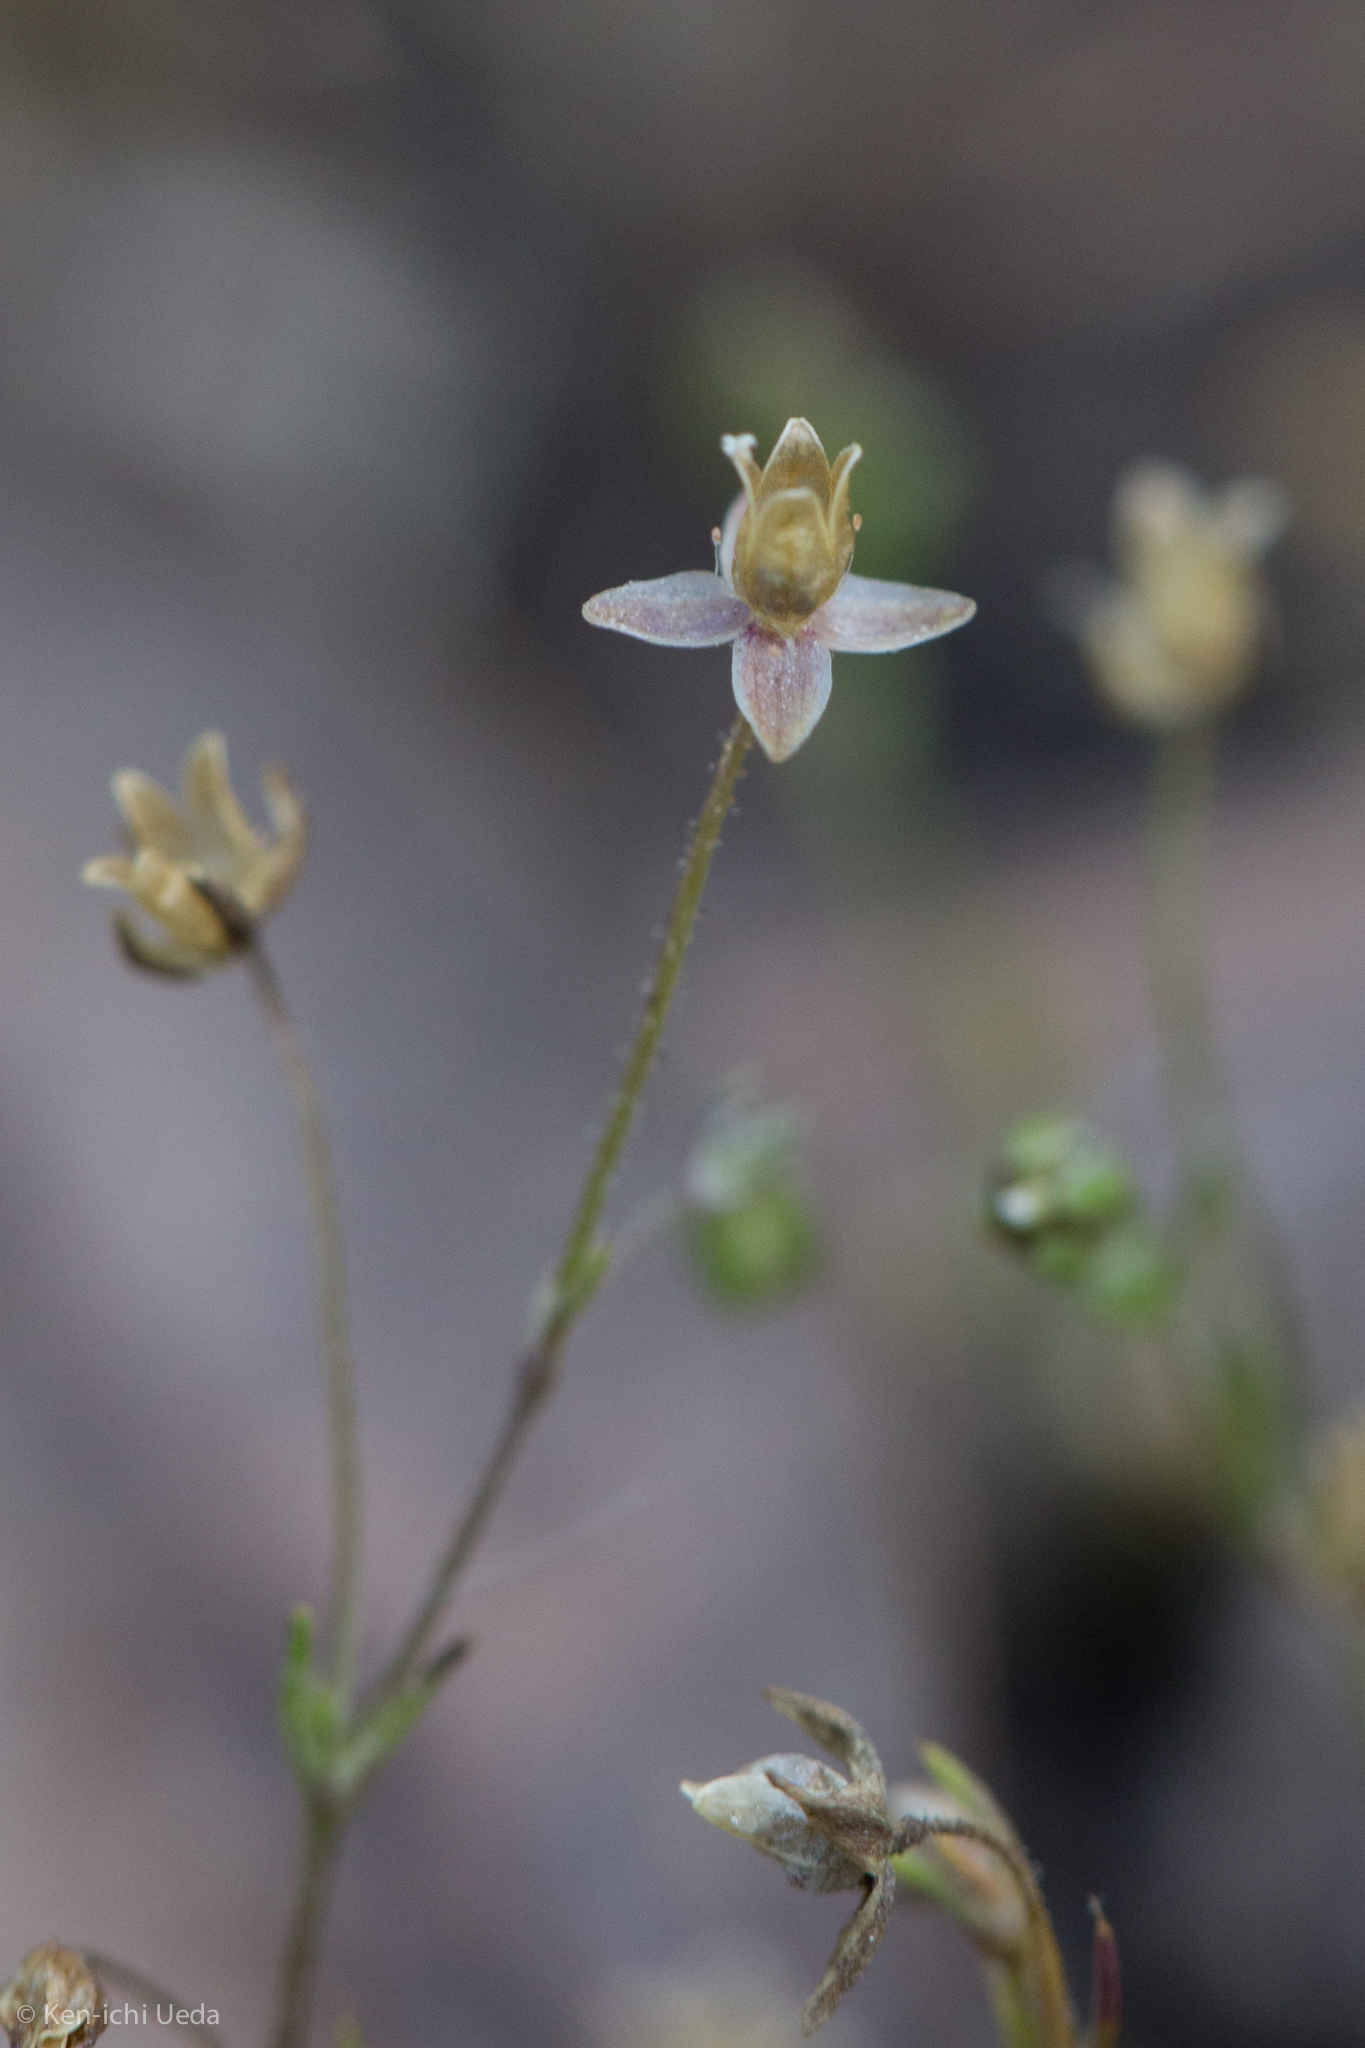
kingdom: Plantae
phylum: Tracheophyta
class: Magnoliopsida
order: Caryophyllales
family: Caryophyllaceae
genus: Sagina
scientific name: Sagina apetala
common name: Annual pearlwort
